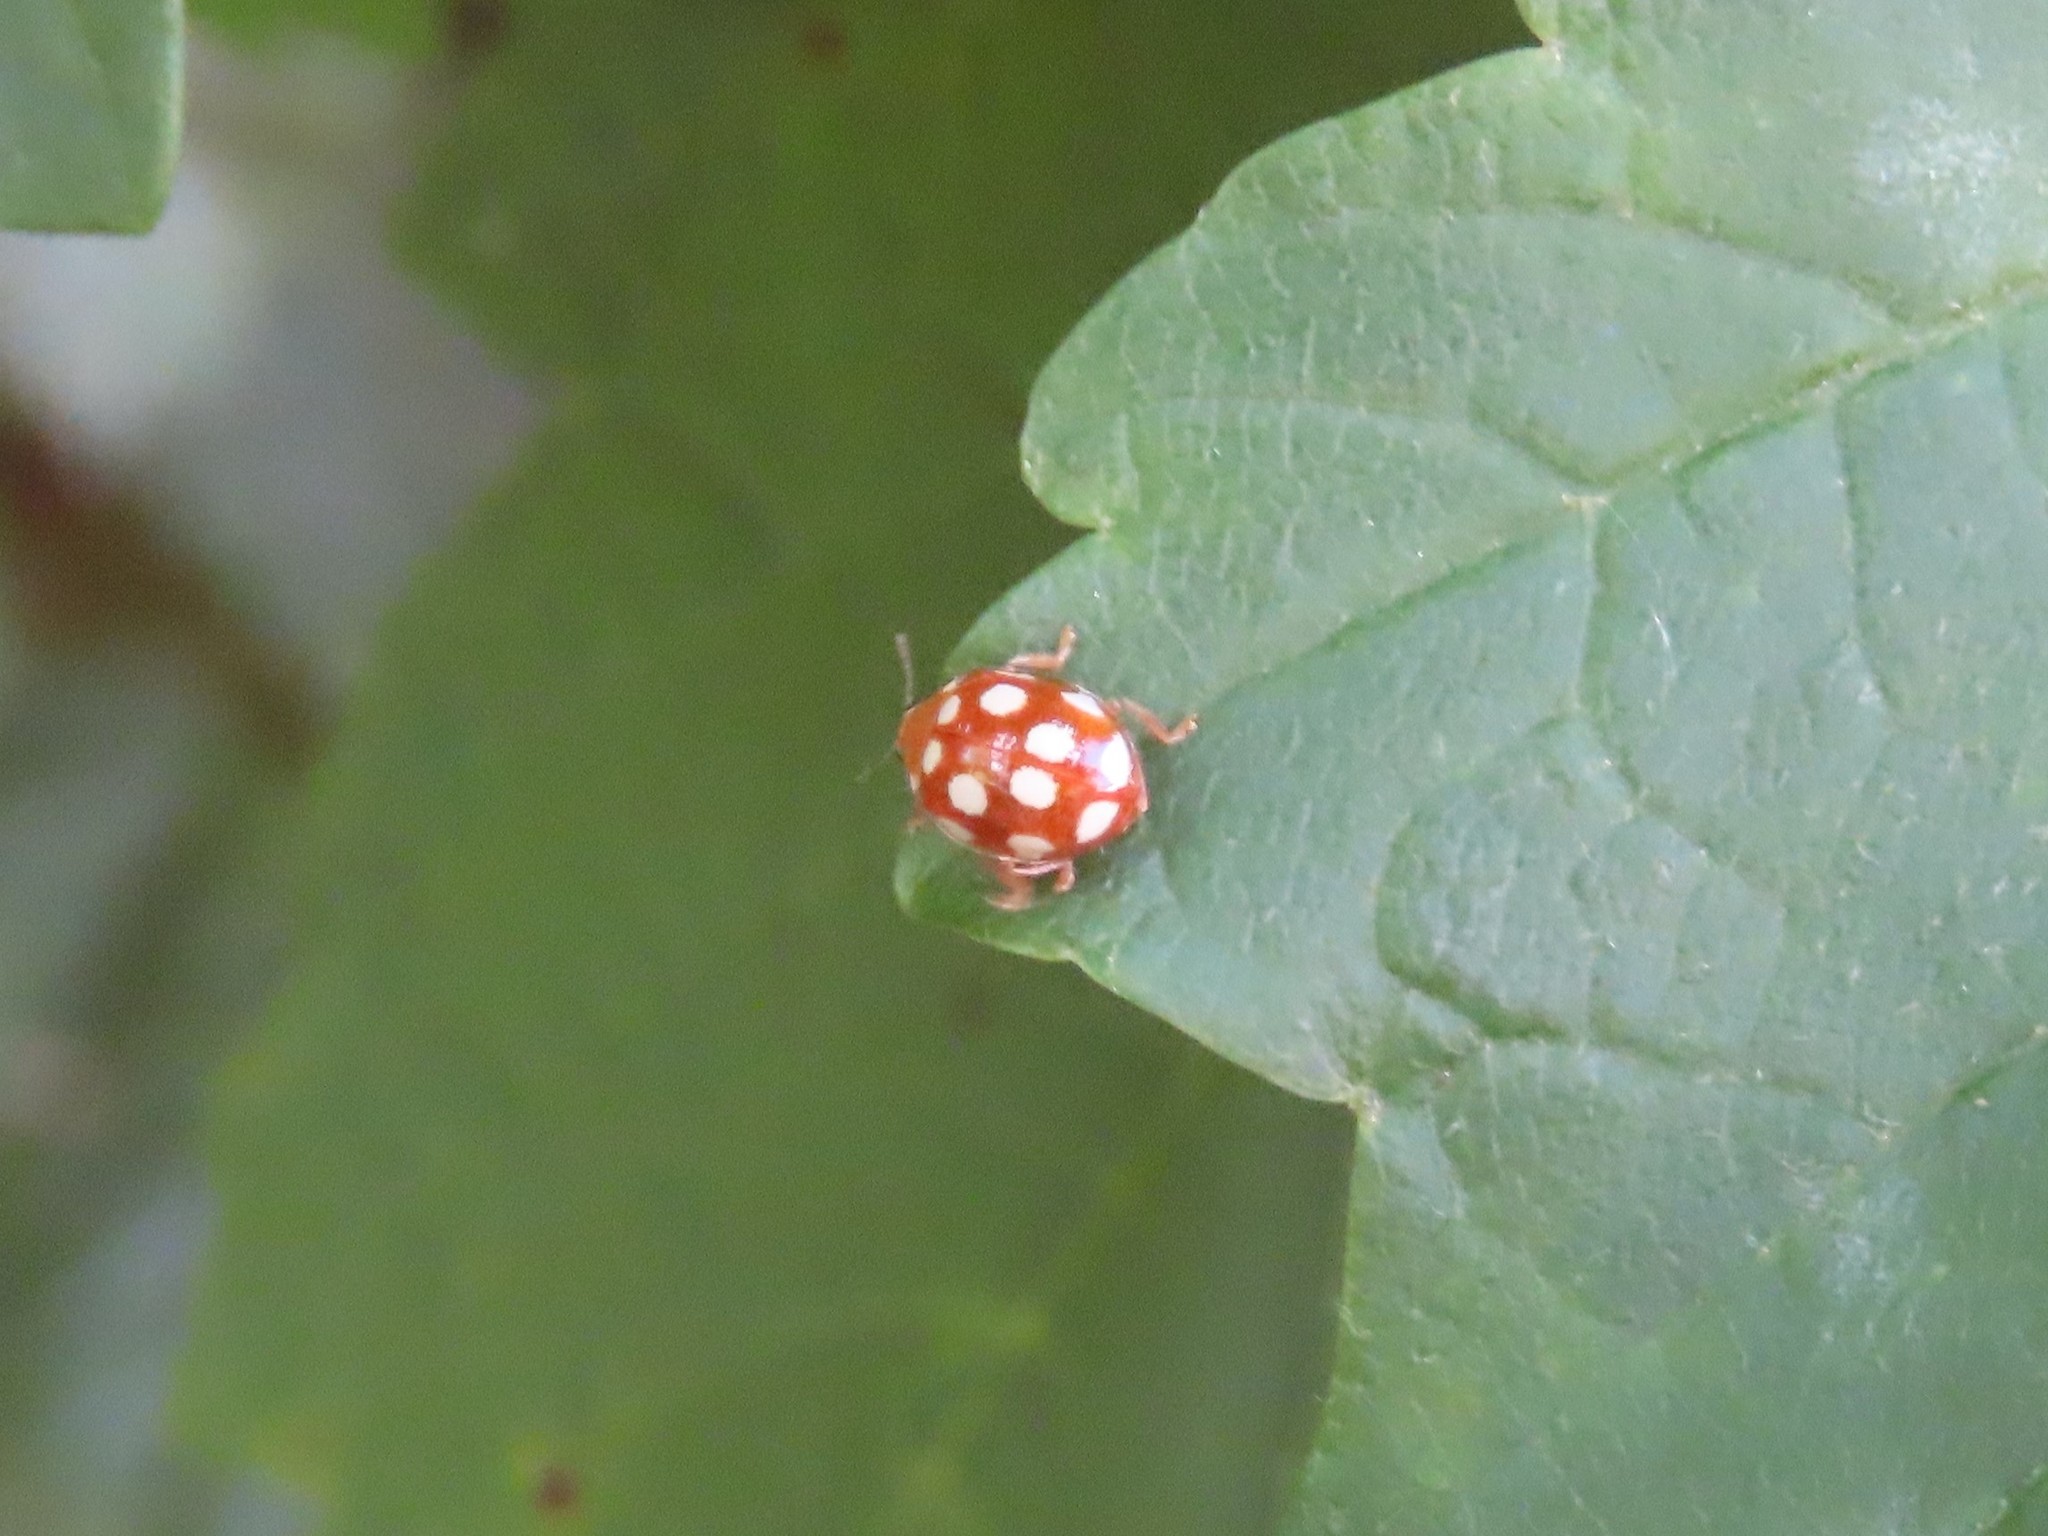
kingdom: Animalia
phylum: Arthropoda
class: Insecta
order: Coleoptera
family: Coccinellidae
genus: Vibidia
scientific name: Vibidia duodecimguttata
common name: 12-spot ladybird
